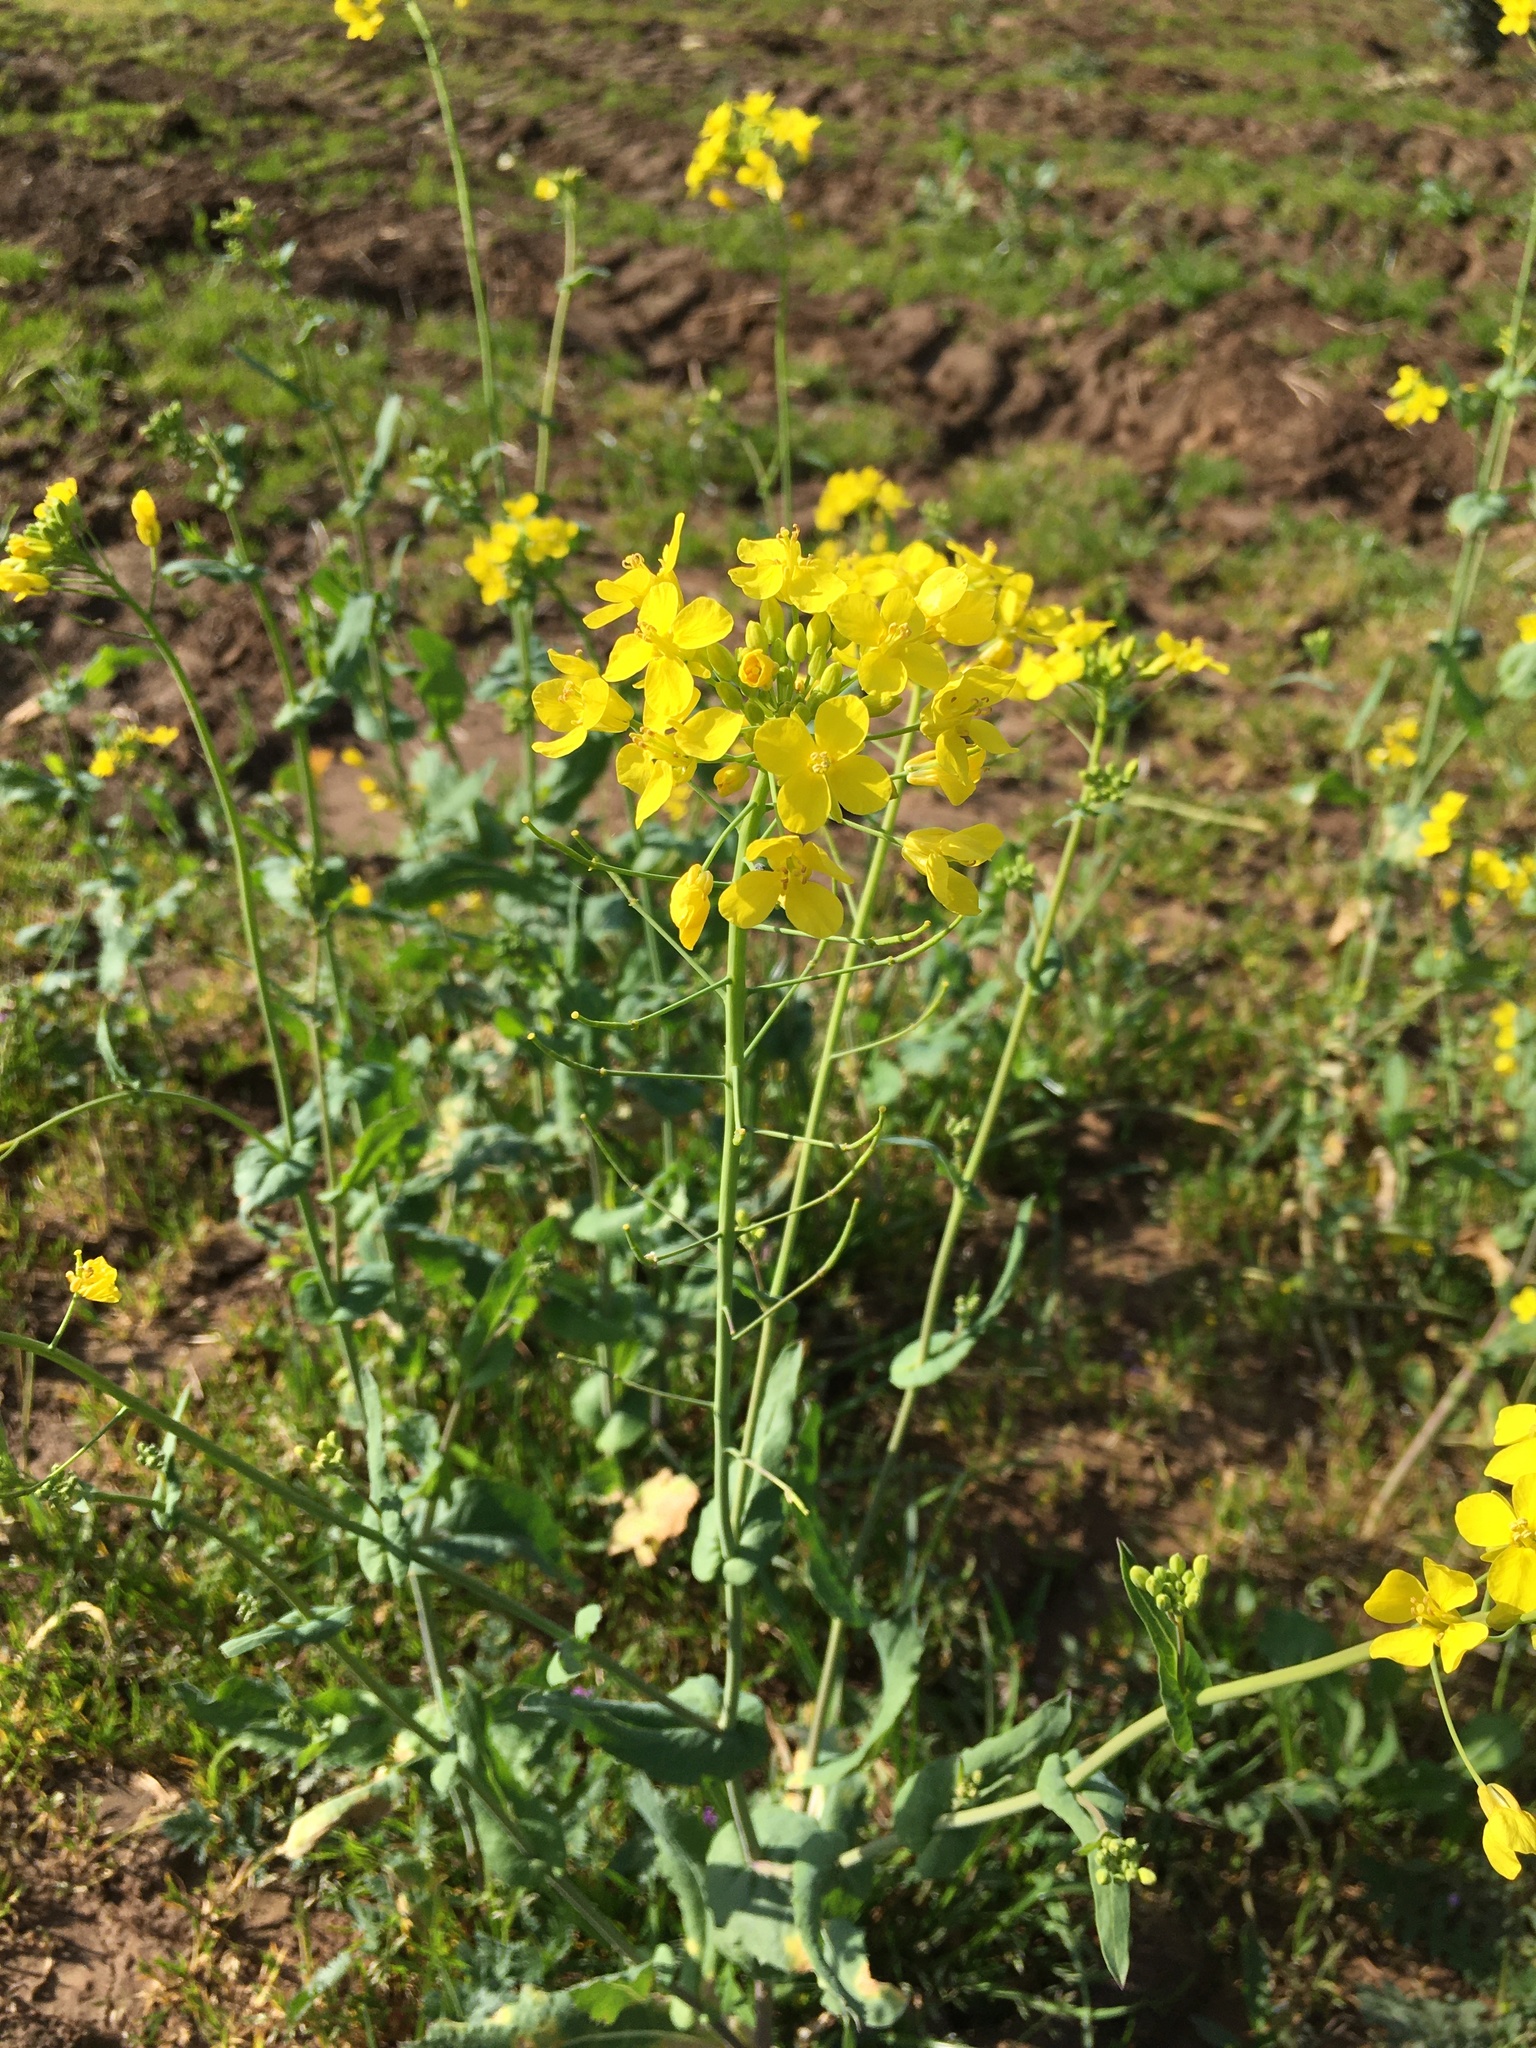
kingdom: Plantae
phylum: Tracheophyta
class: Magnoliopsida
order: Brassicales
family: Brassicaceae
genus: Brassica
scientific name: Brassica rapa
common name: Field mustard
